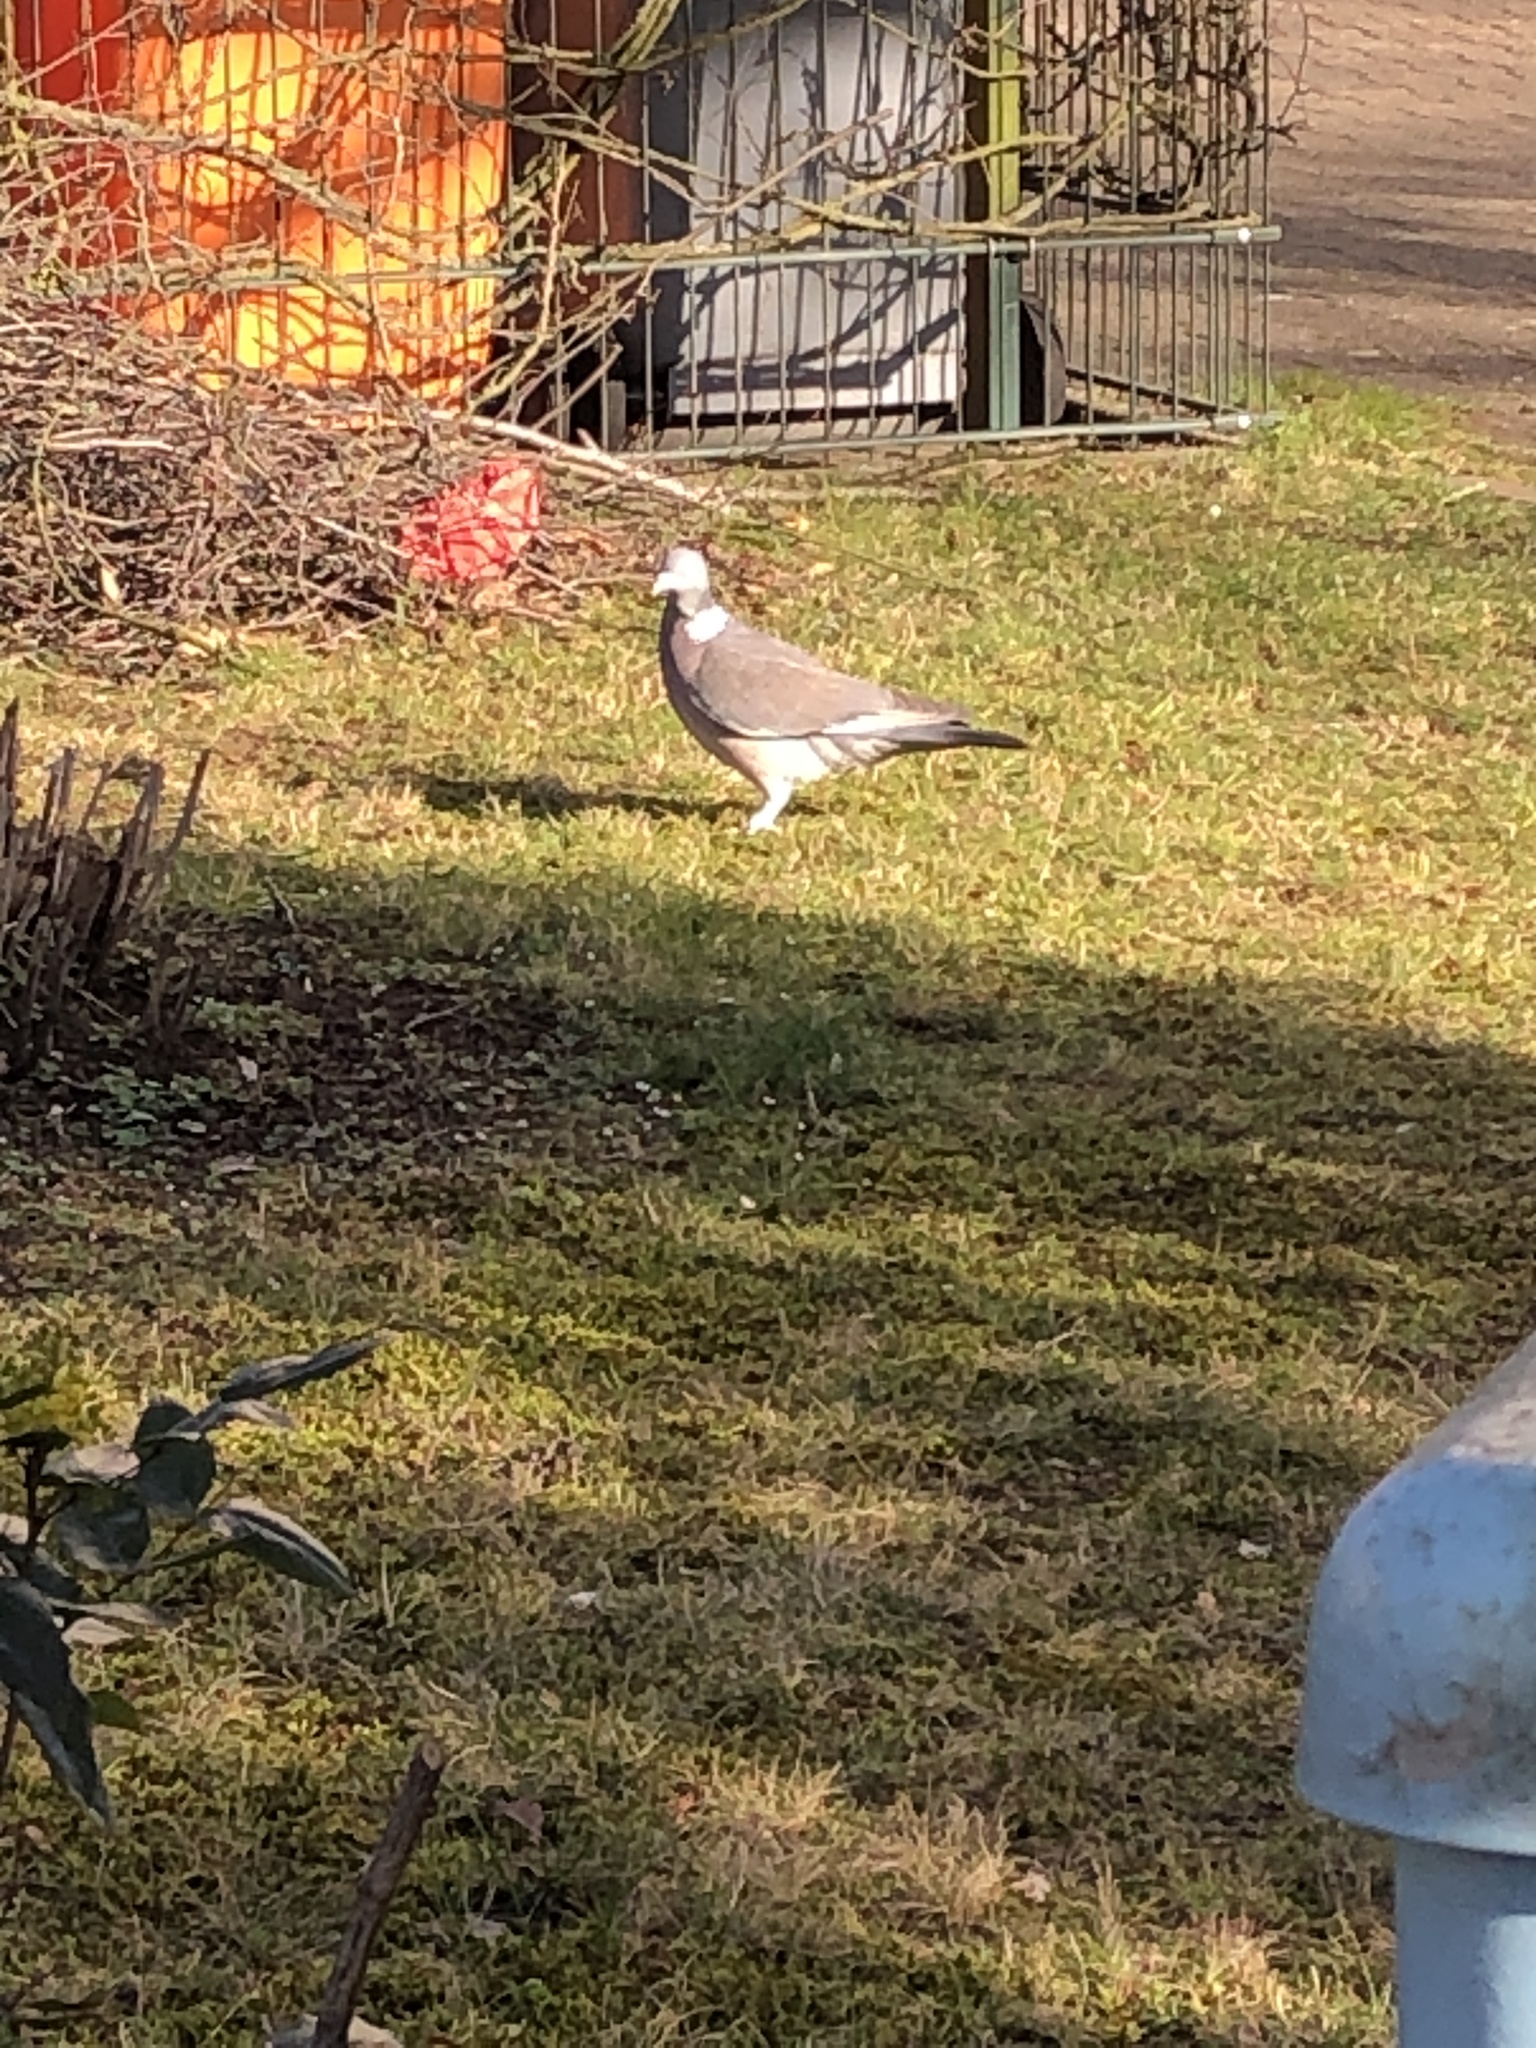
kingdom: Animalia
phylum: Chordata
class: Aves
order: Columbiformes
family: Columbidae
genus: Columba
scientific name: Columba palumbus
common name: Common wood pigeon
